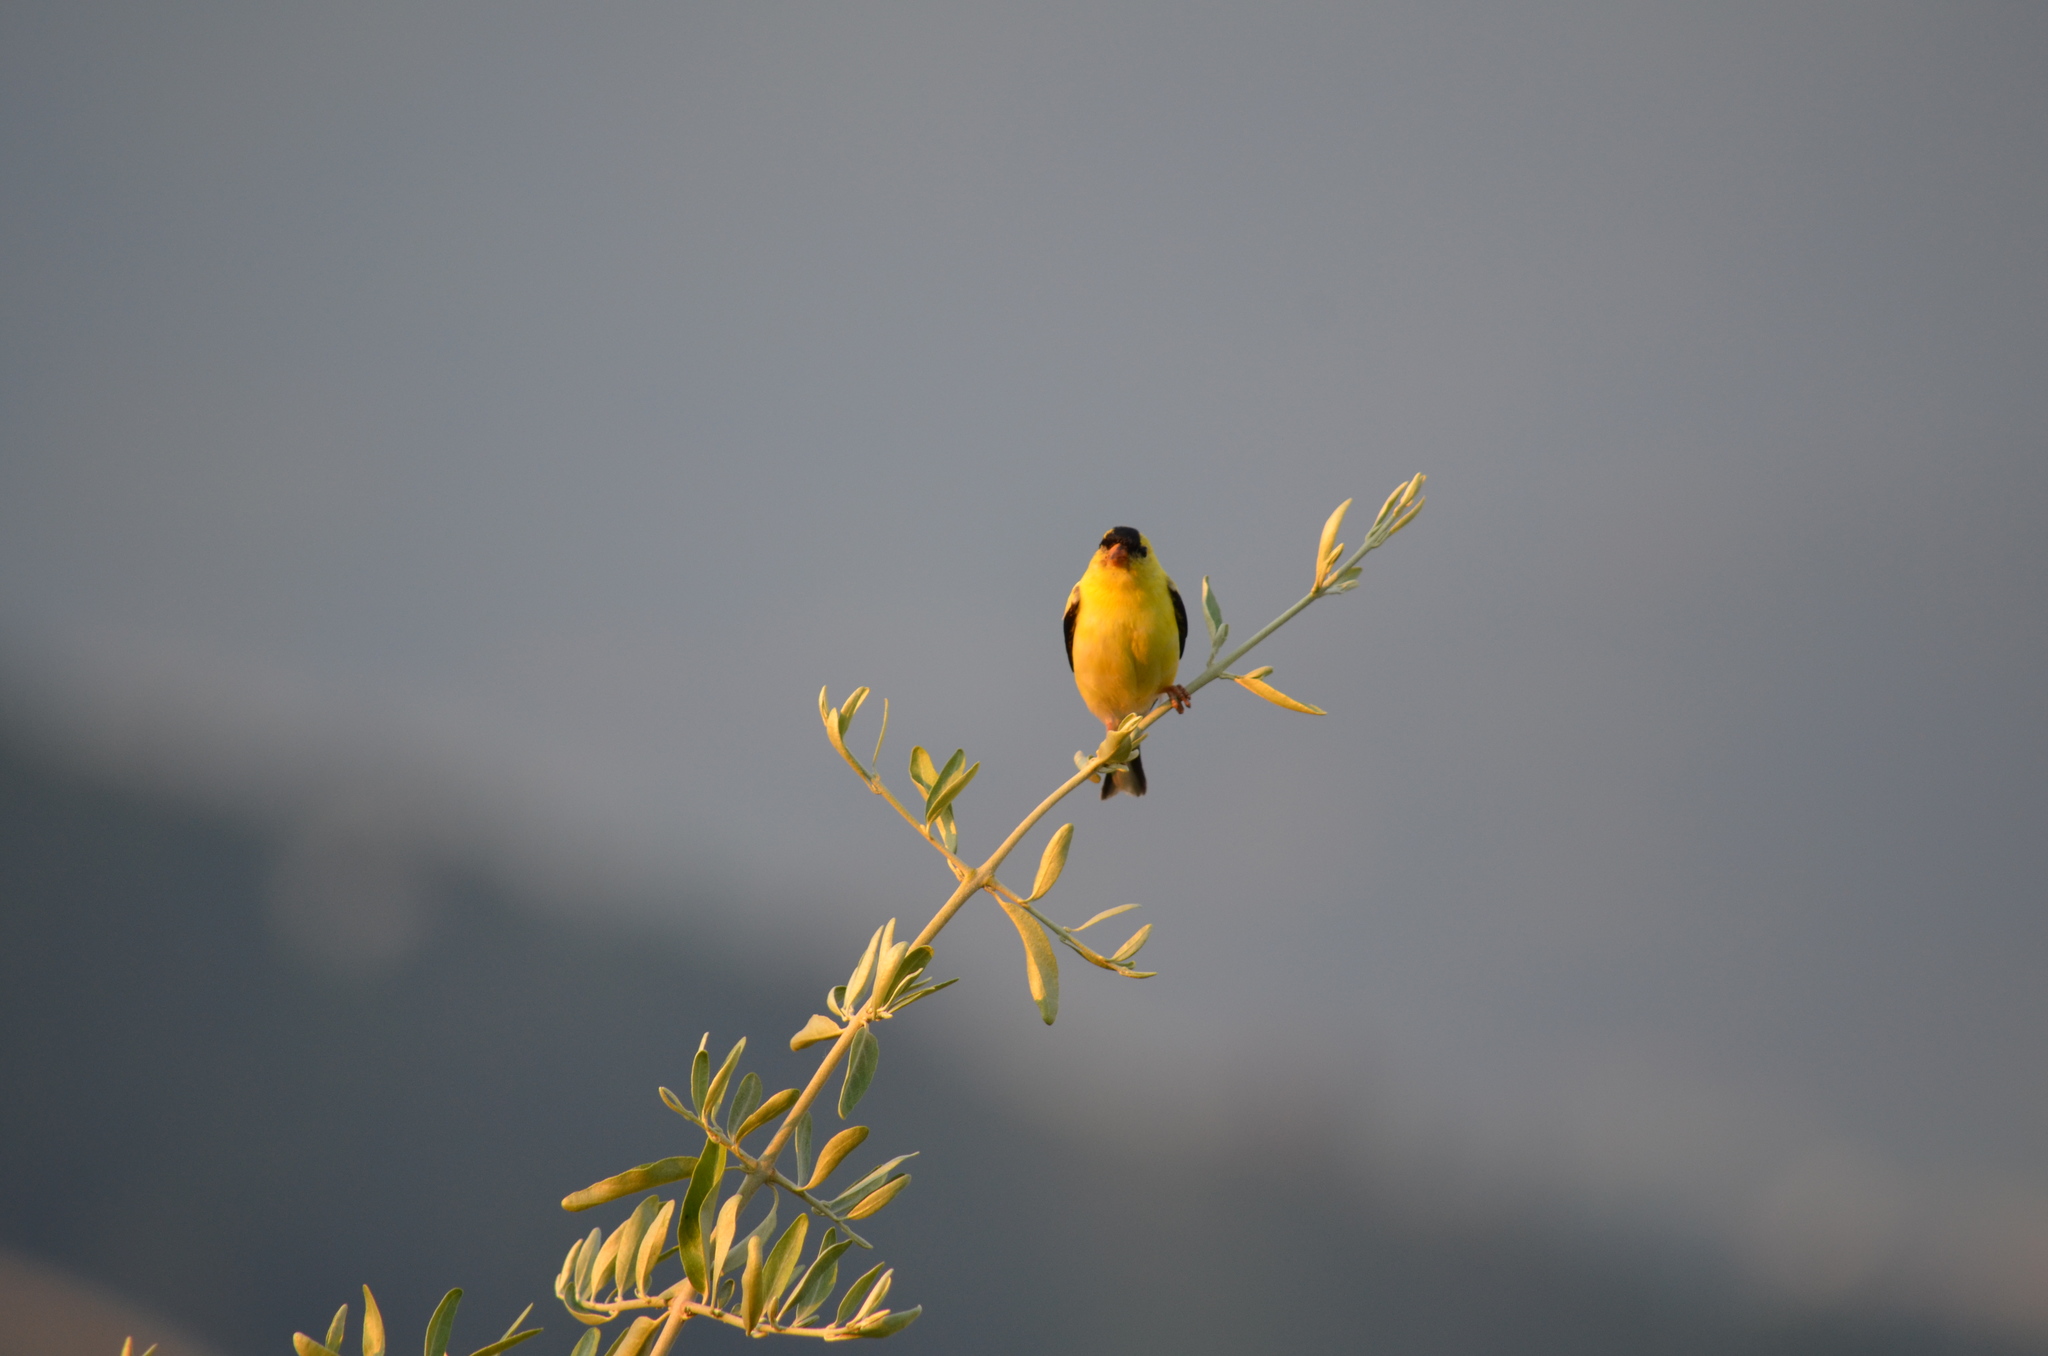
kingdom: Animalia
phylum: Chordata
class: Aves
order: Passeriformes
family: Fringillidae
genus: Spinus
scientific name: Spinus tristis
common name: American goldfinch
